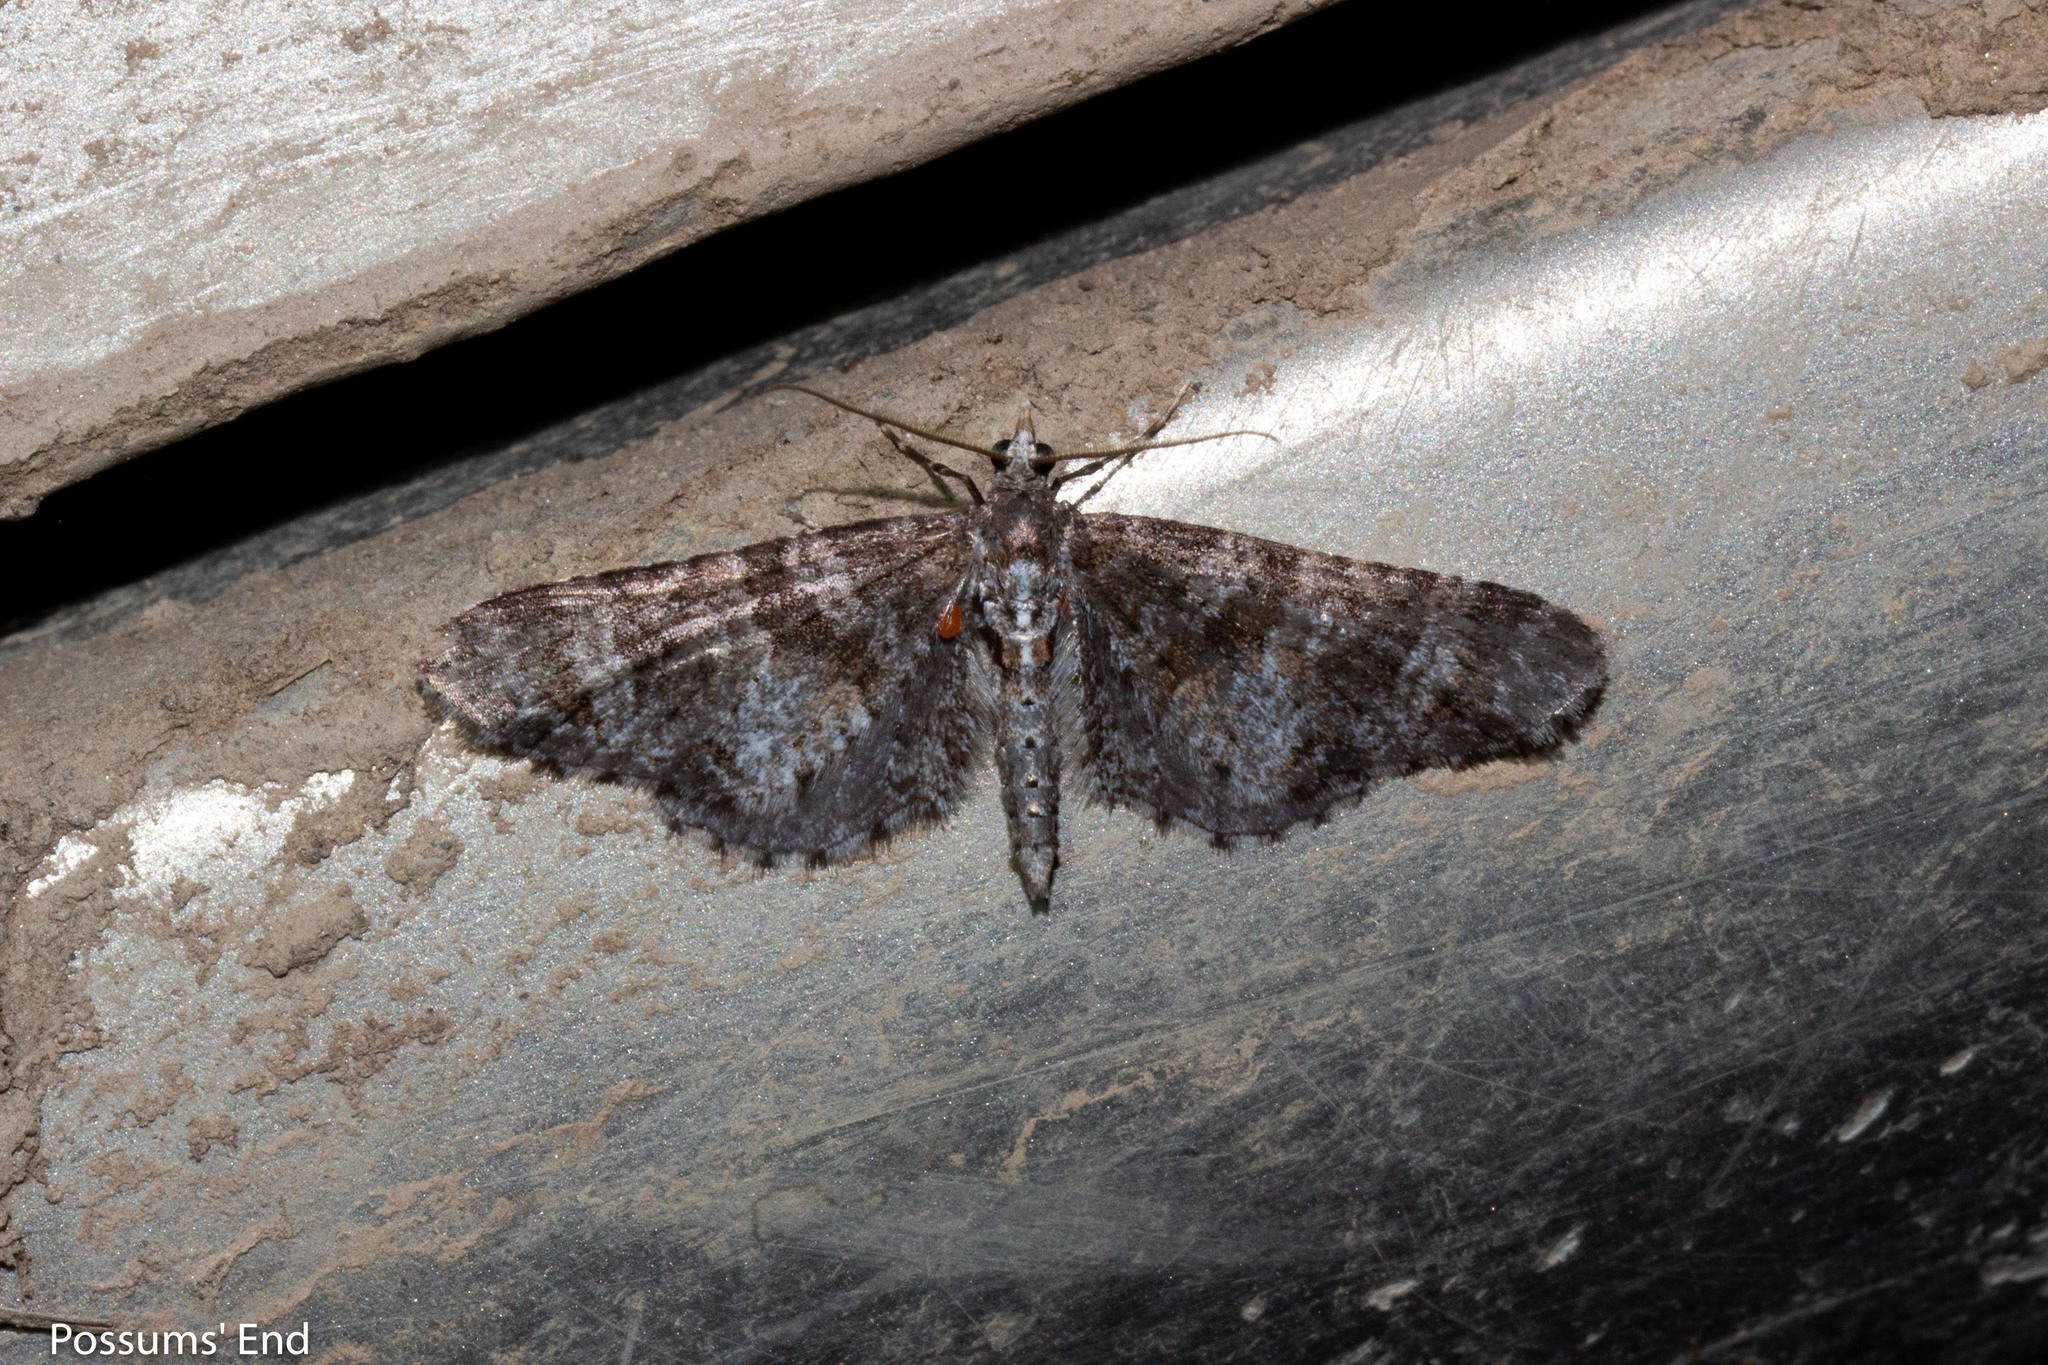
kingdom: Animalia
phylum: Arthropoda
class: Insecta
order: Lepidoptera
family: Geometridae
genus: Pasiphila
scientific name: Pasiphila halianthes
